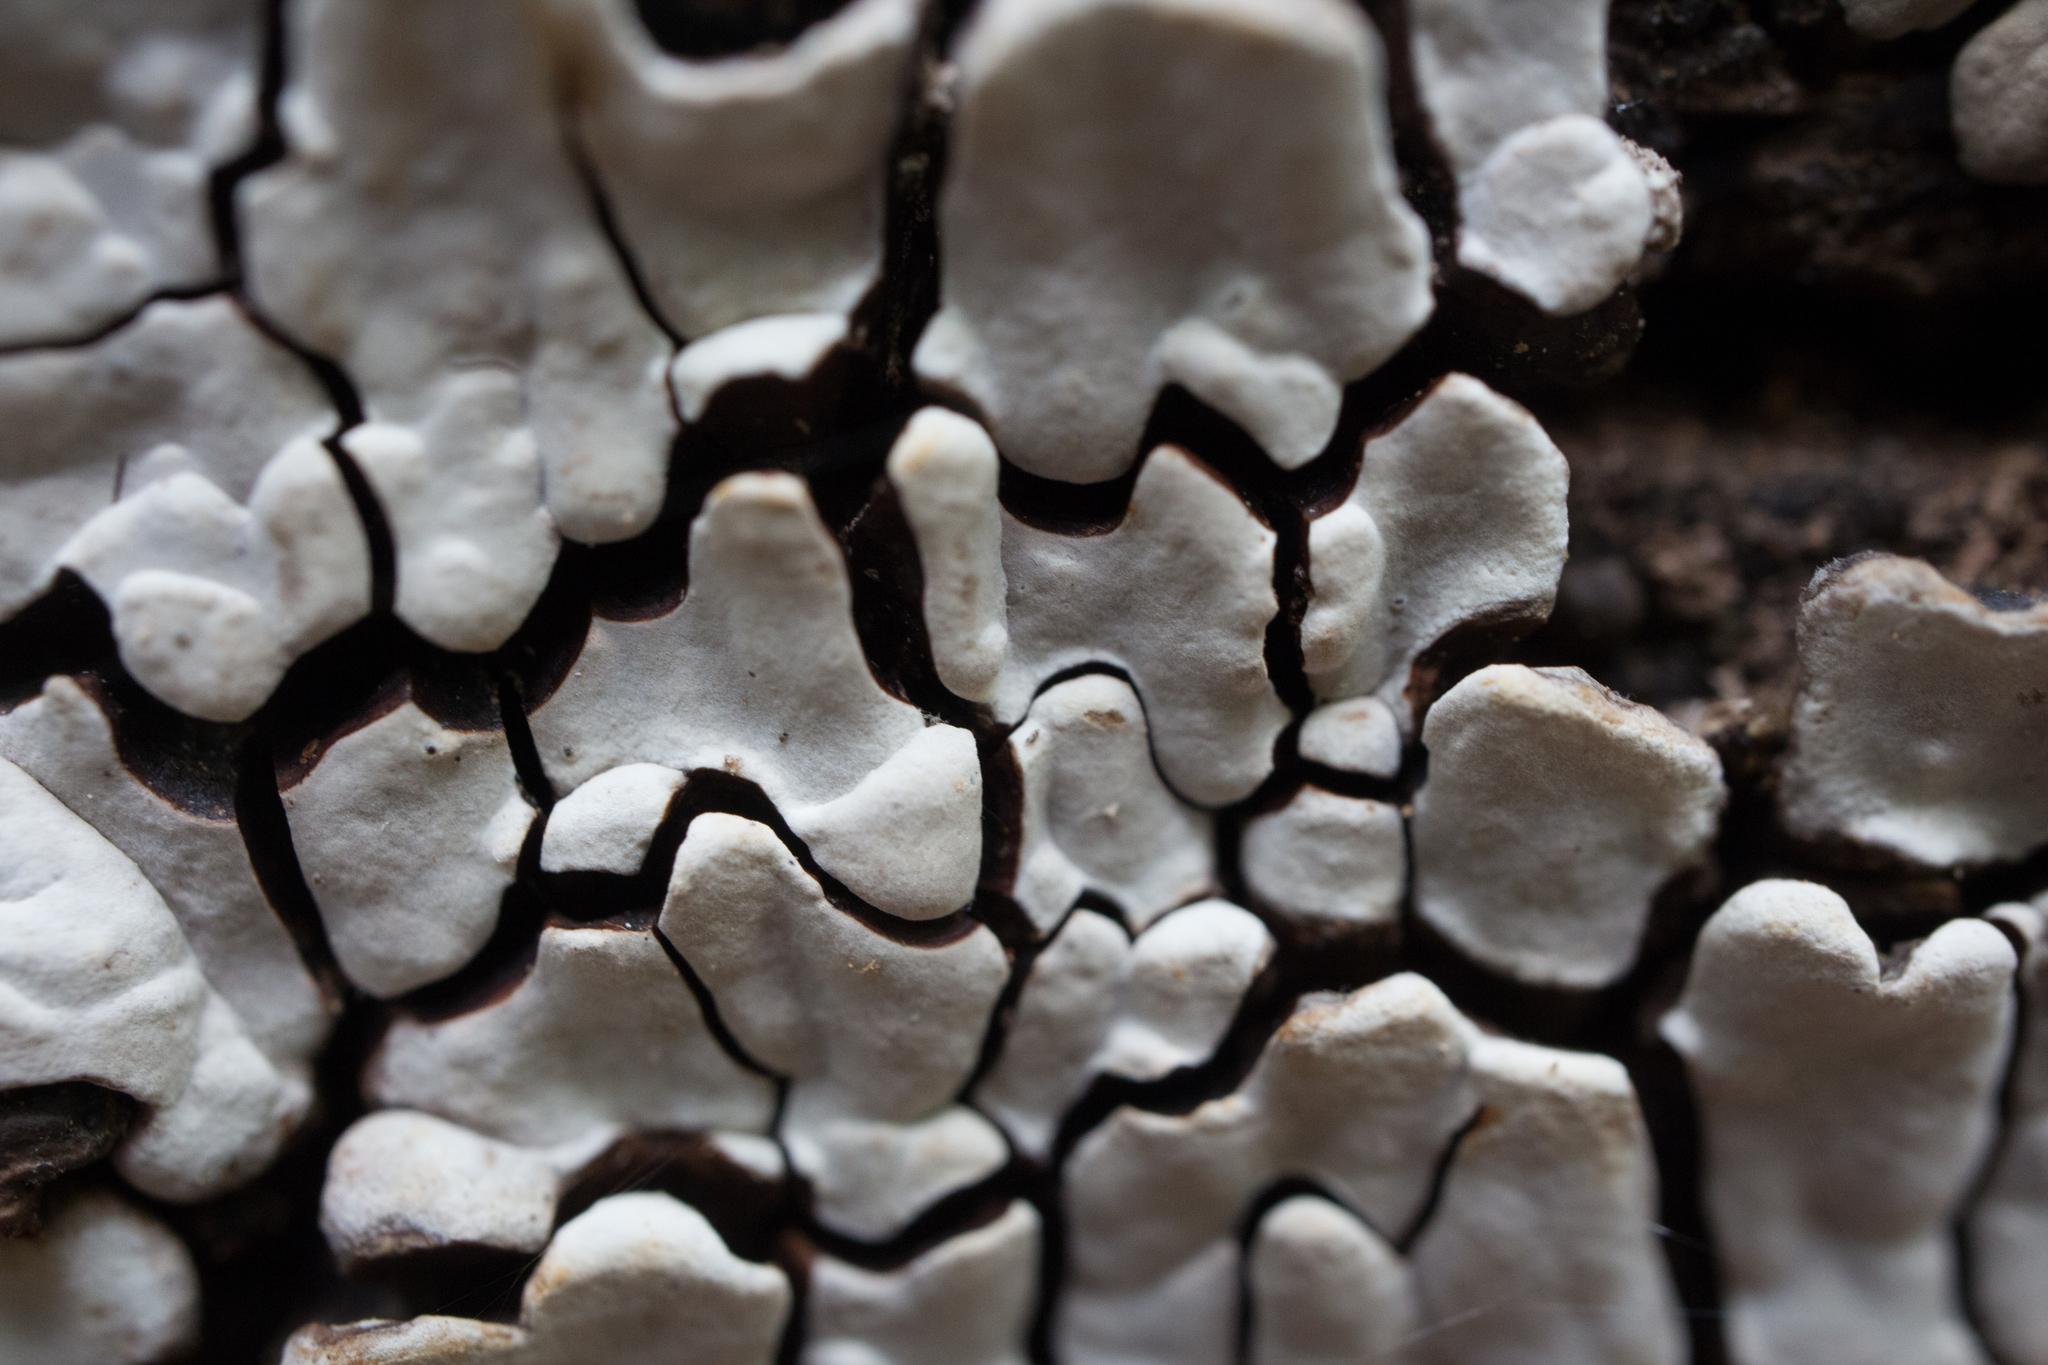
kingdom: Fungi
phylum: Basidiomycota
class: Agaricomycetes
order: Russulales
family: Stereaceae
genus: Xylobolus
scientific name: Xylobolus frustulatus
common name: Ceramic parchment
